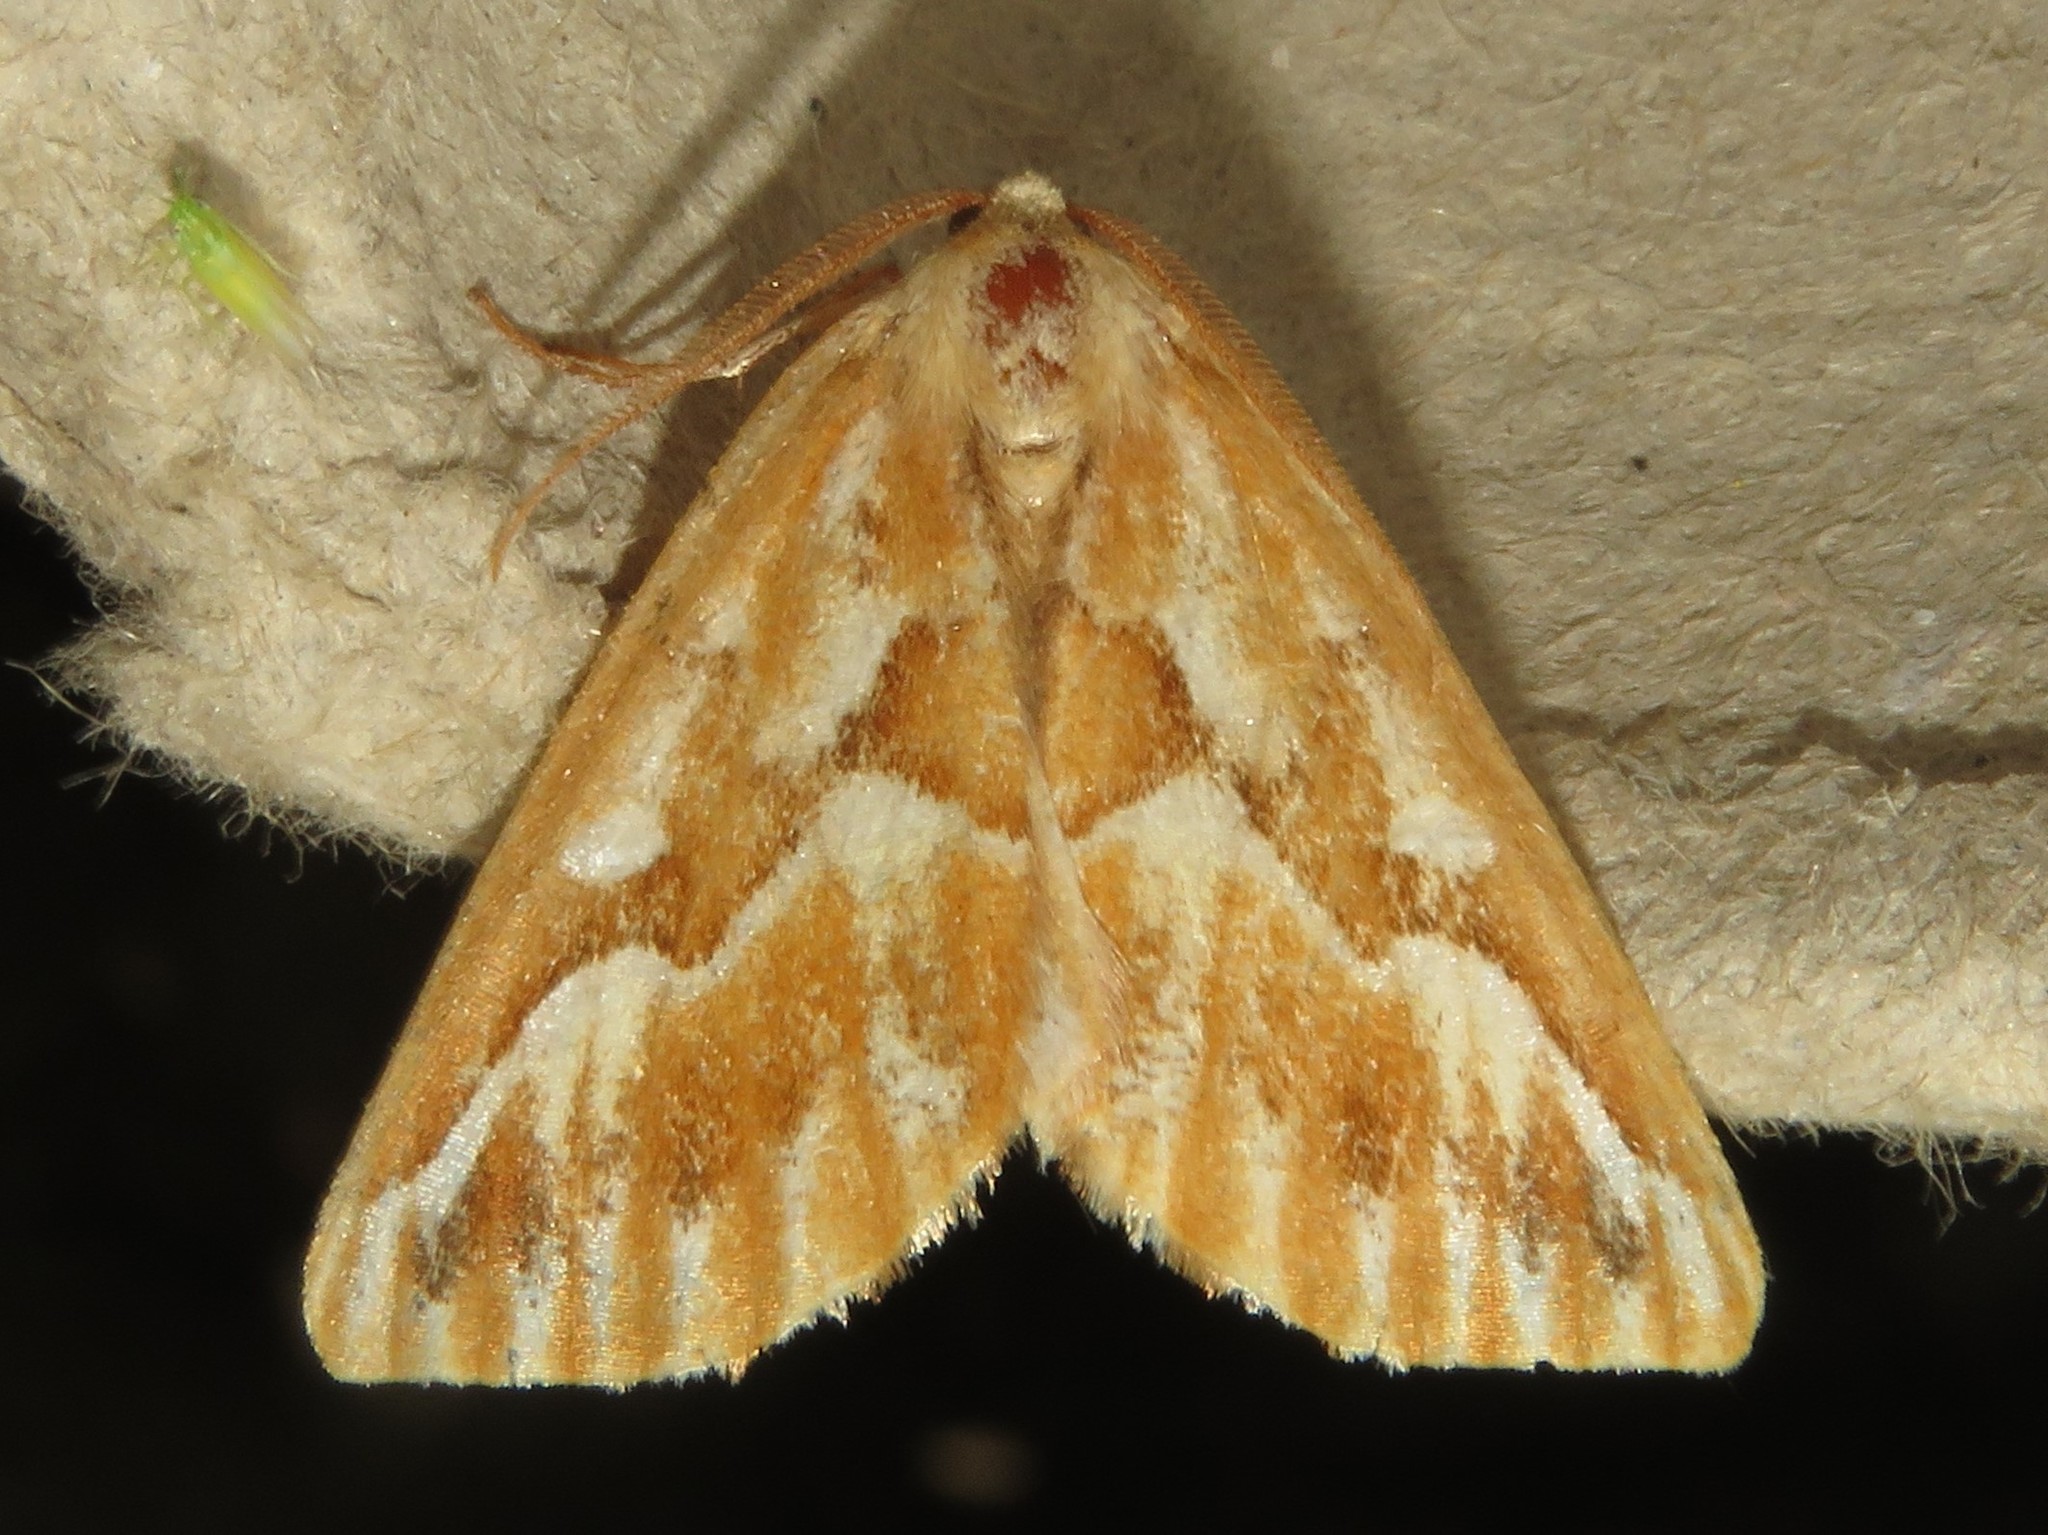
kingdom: Animalia
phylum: Arthropoda
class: Insecta
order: Lepidoptera
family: Geometridae
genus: Caripeta
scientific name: Caripeta piniata
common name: Northern pine looper moth
